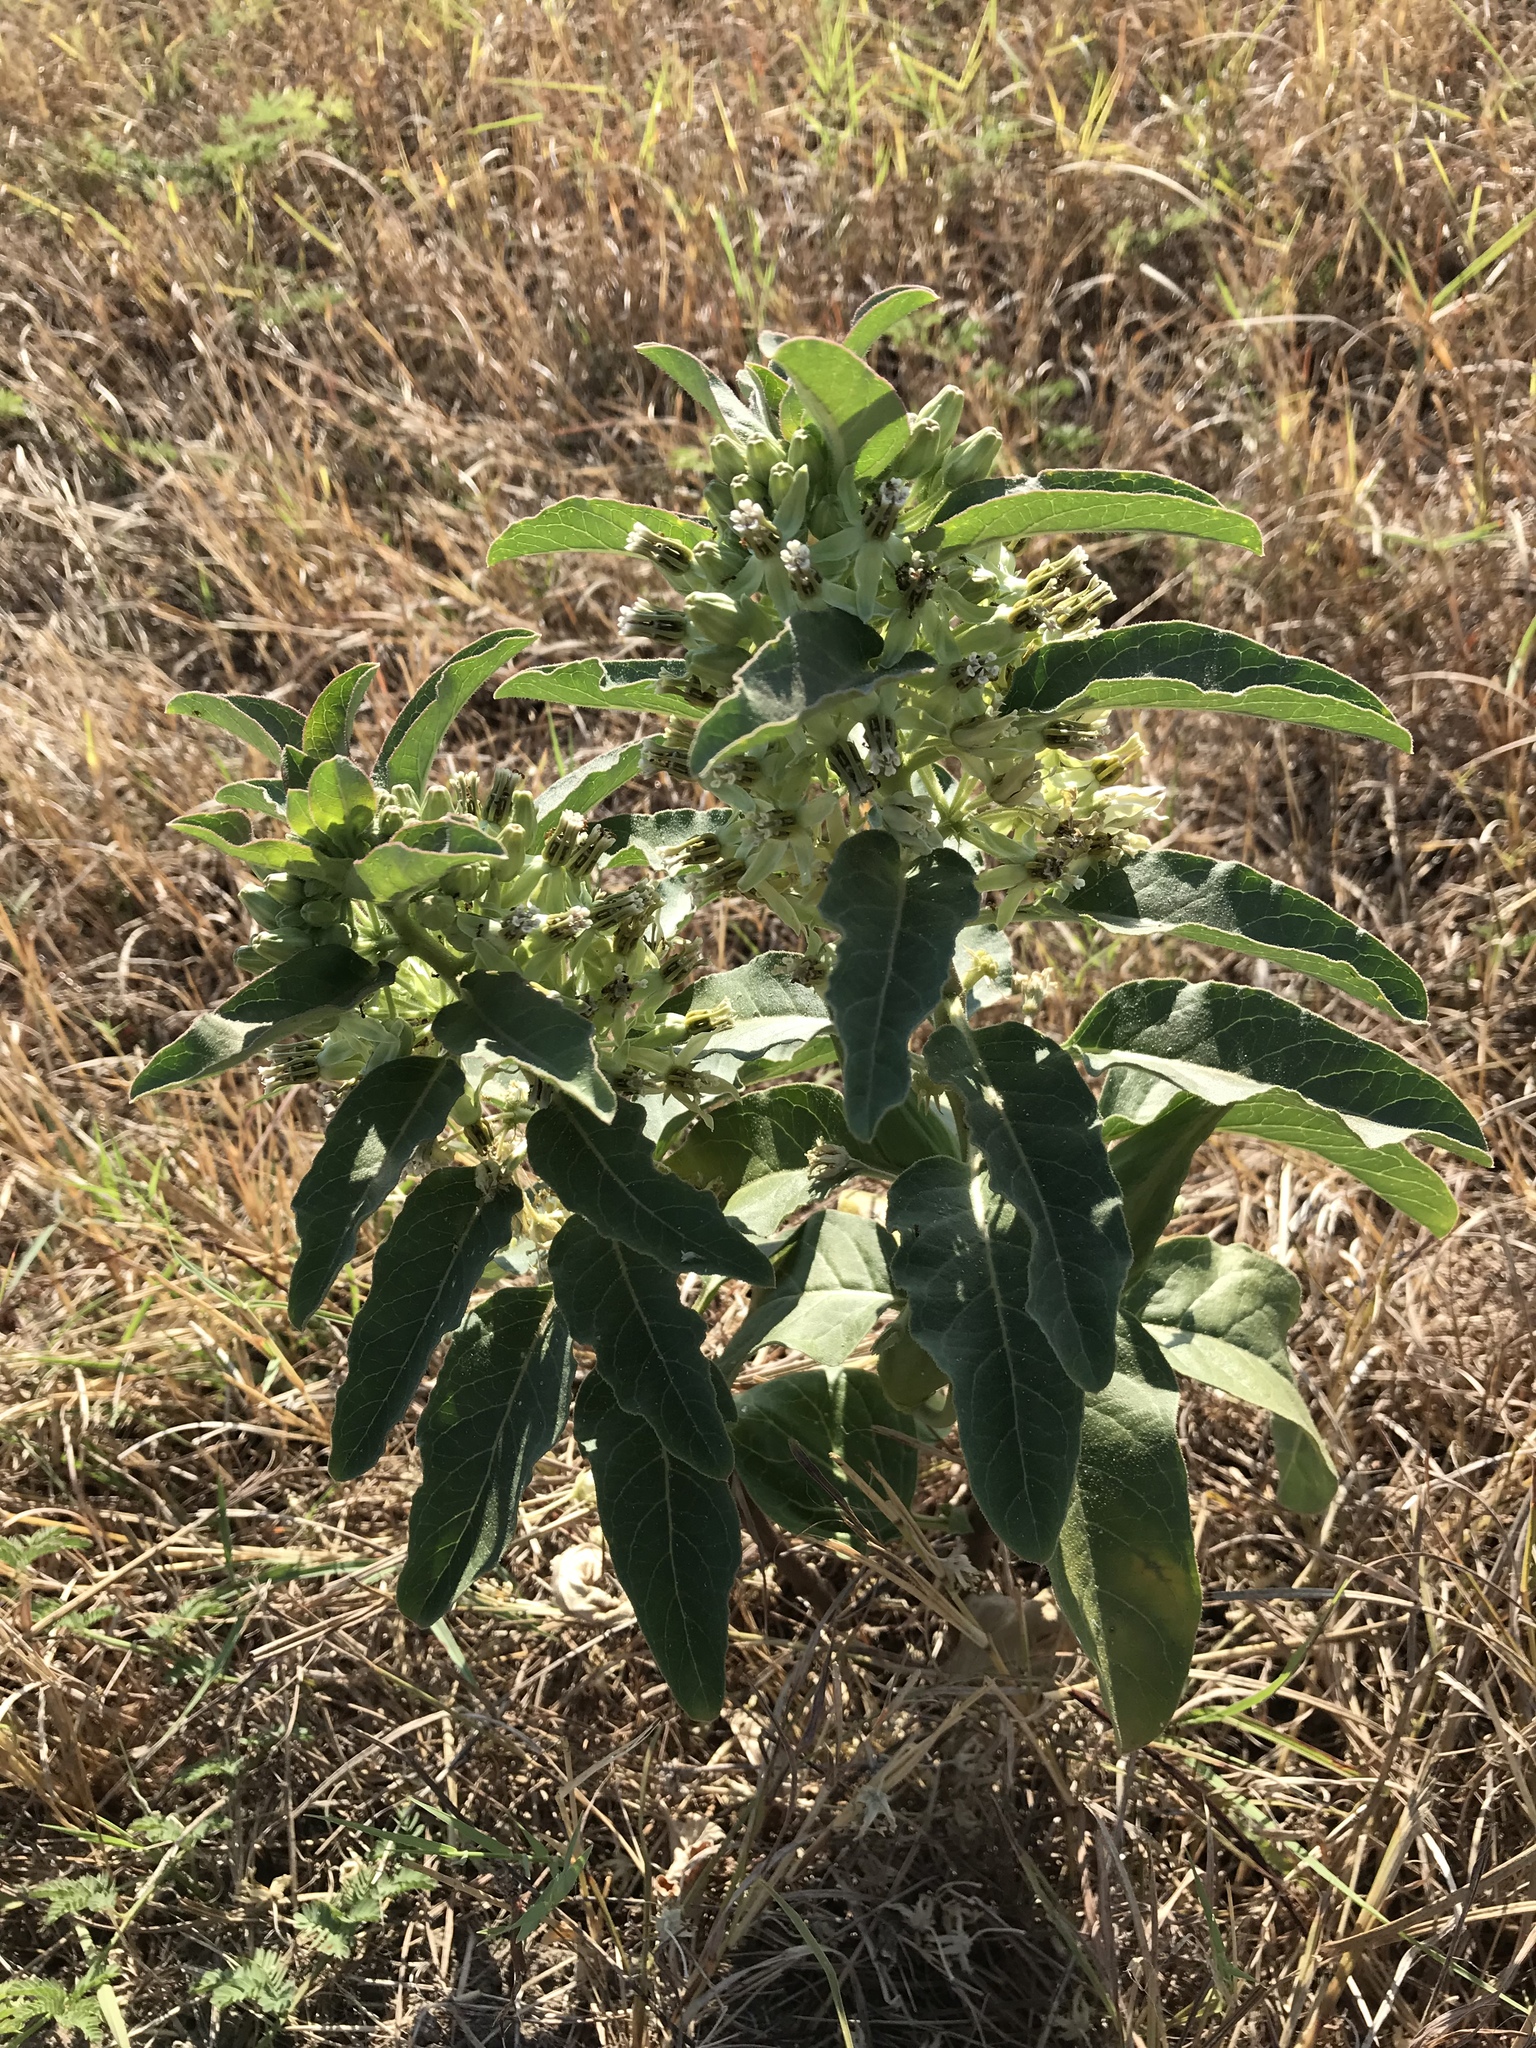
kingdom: Plantae
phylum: Tracheophyta
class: Magnoliopsida
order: Gentianales
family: Apocynaceae
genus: Asclepias
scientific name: Asclepias oenotheroides
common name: Zizotes milkweed
